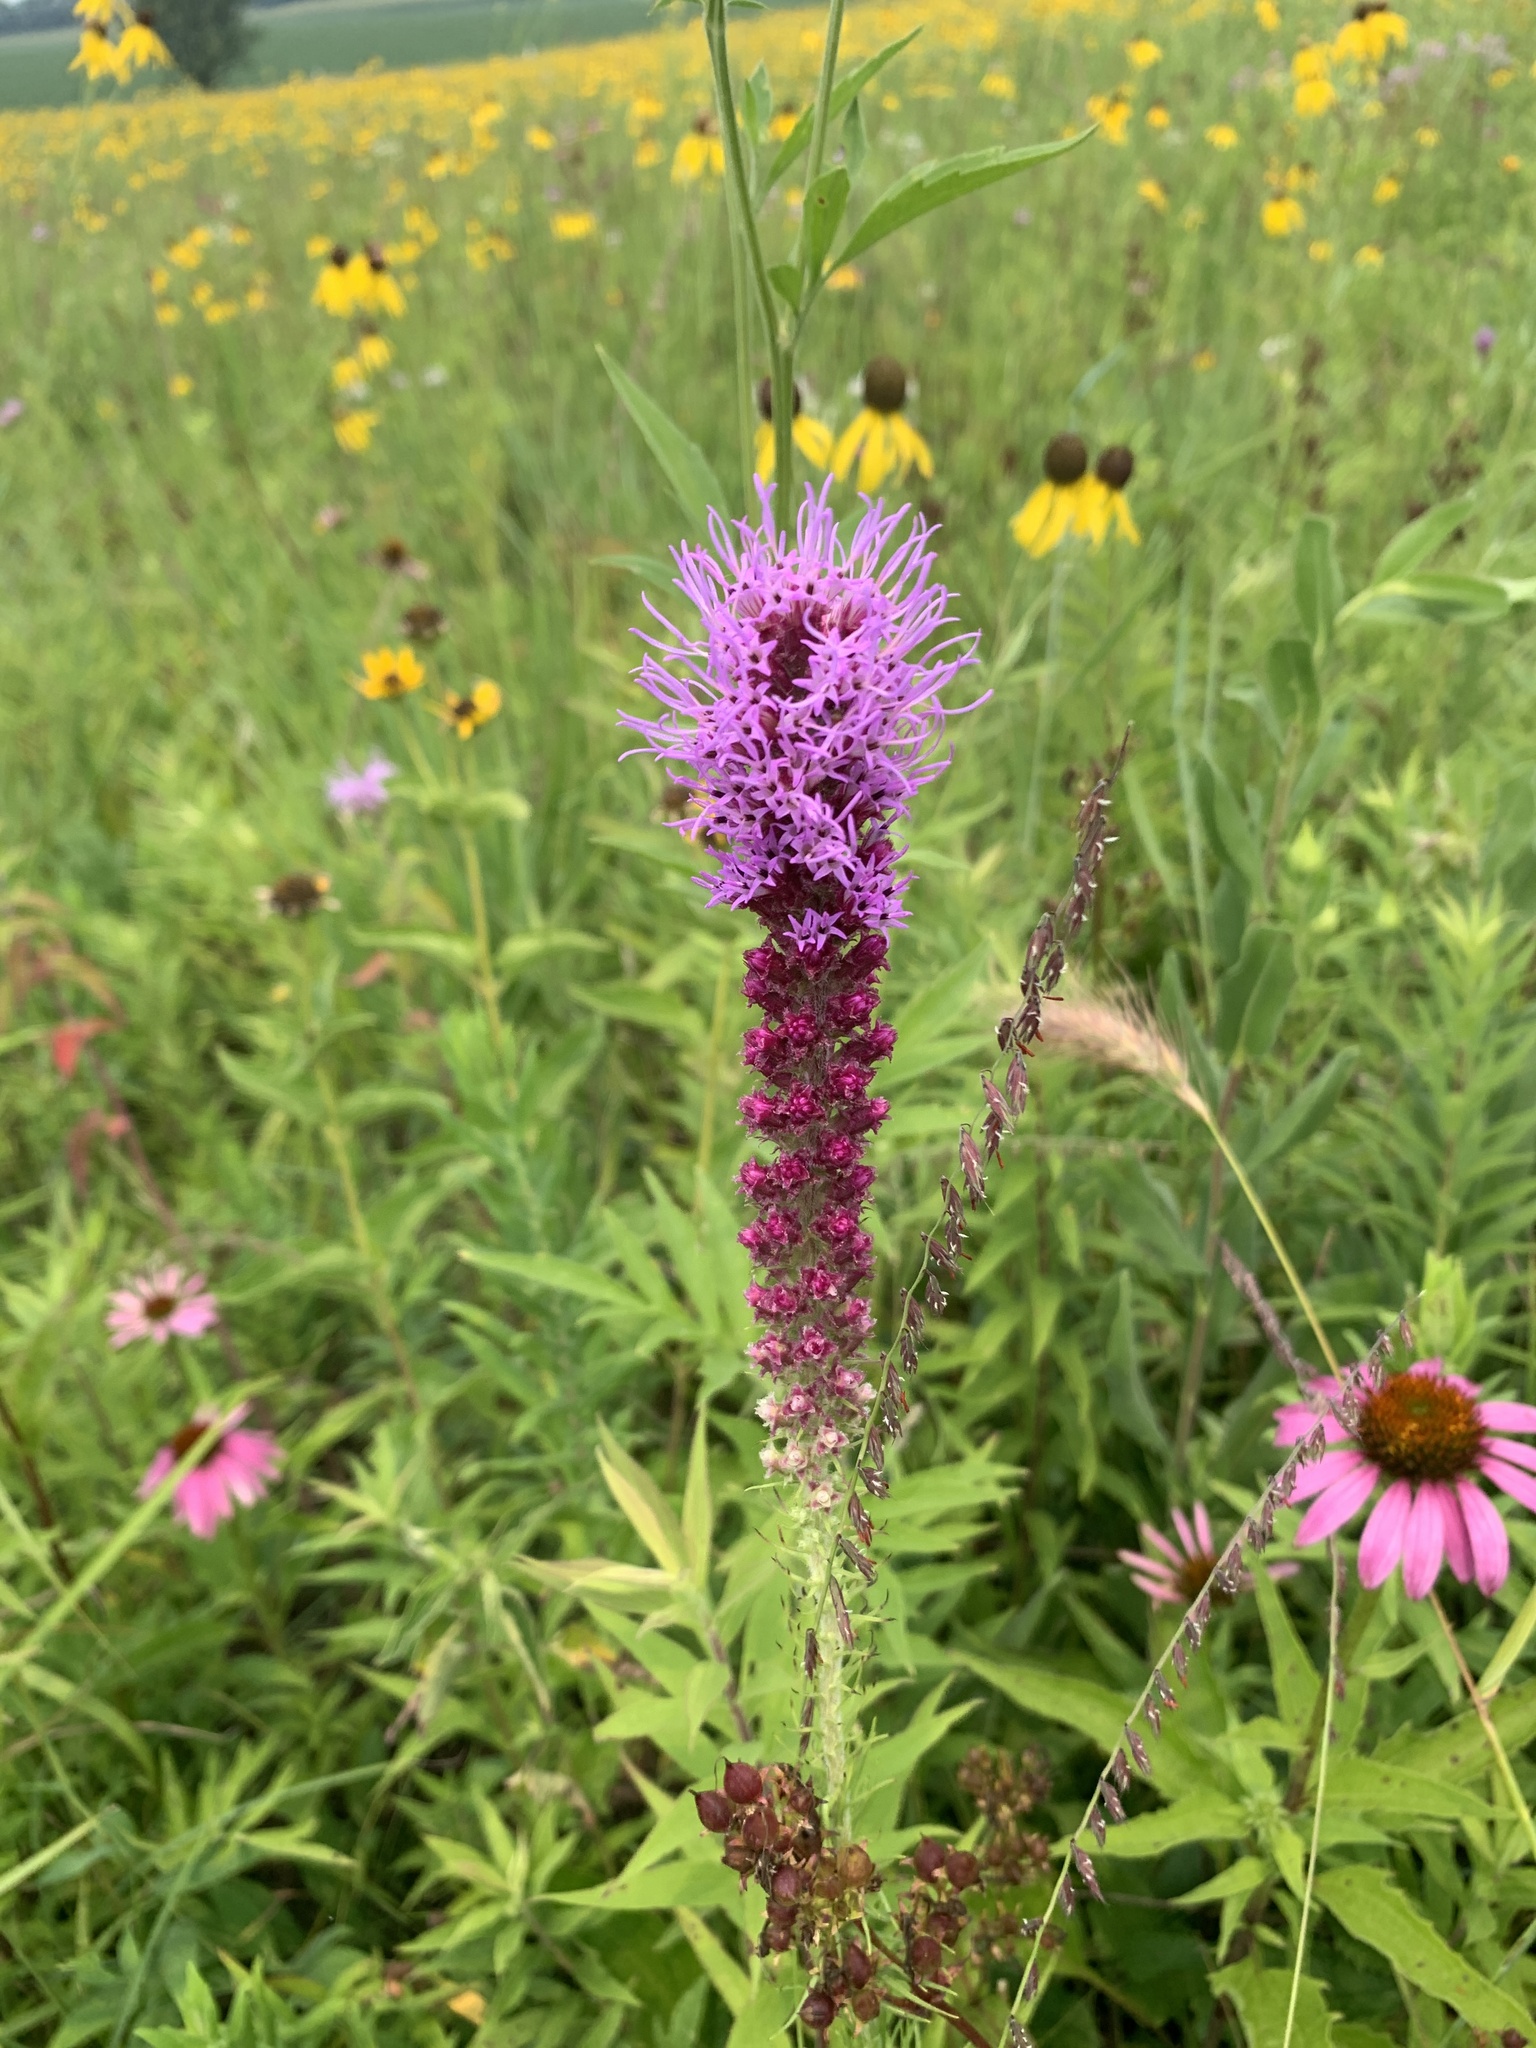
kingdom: Plantae
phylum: Tracheophyta
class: Magnoliopsida
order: Asterales
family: Asteraceae
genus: Liatris
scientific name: Liatris pycnostachya
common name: Cattail gayfeather
